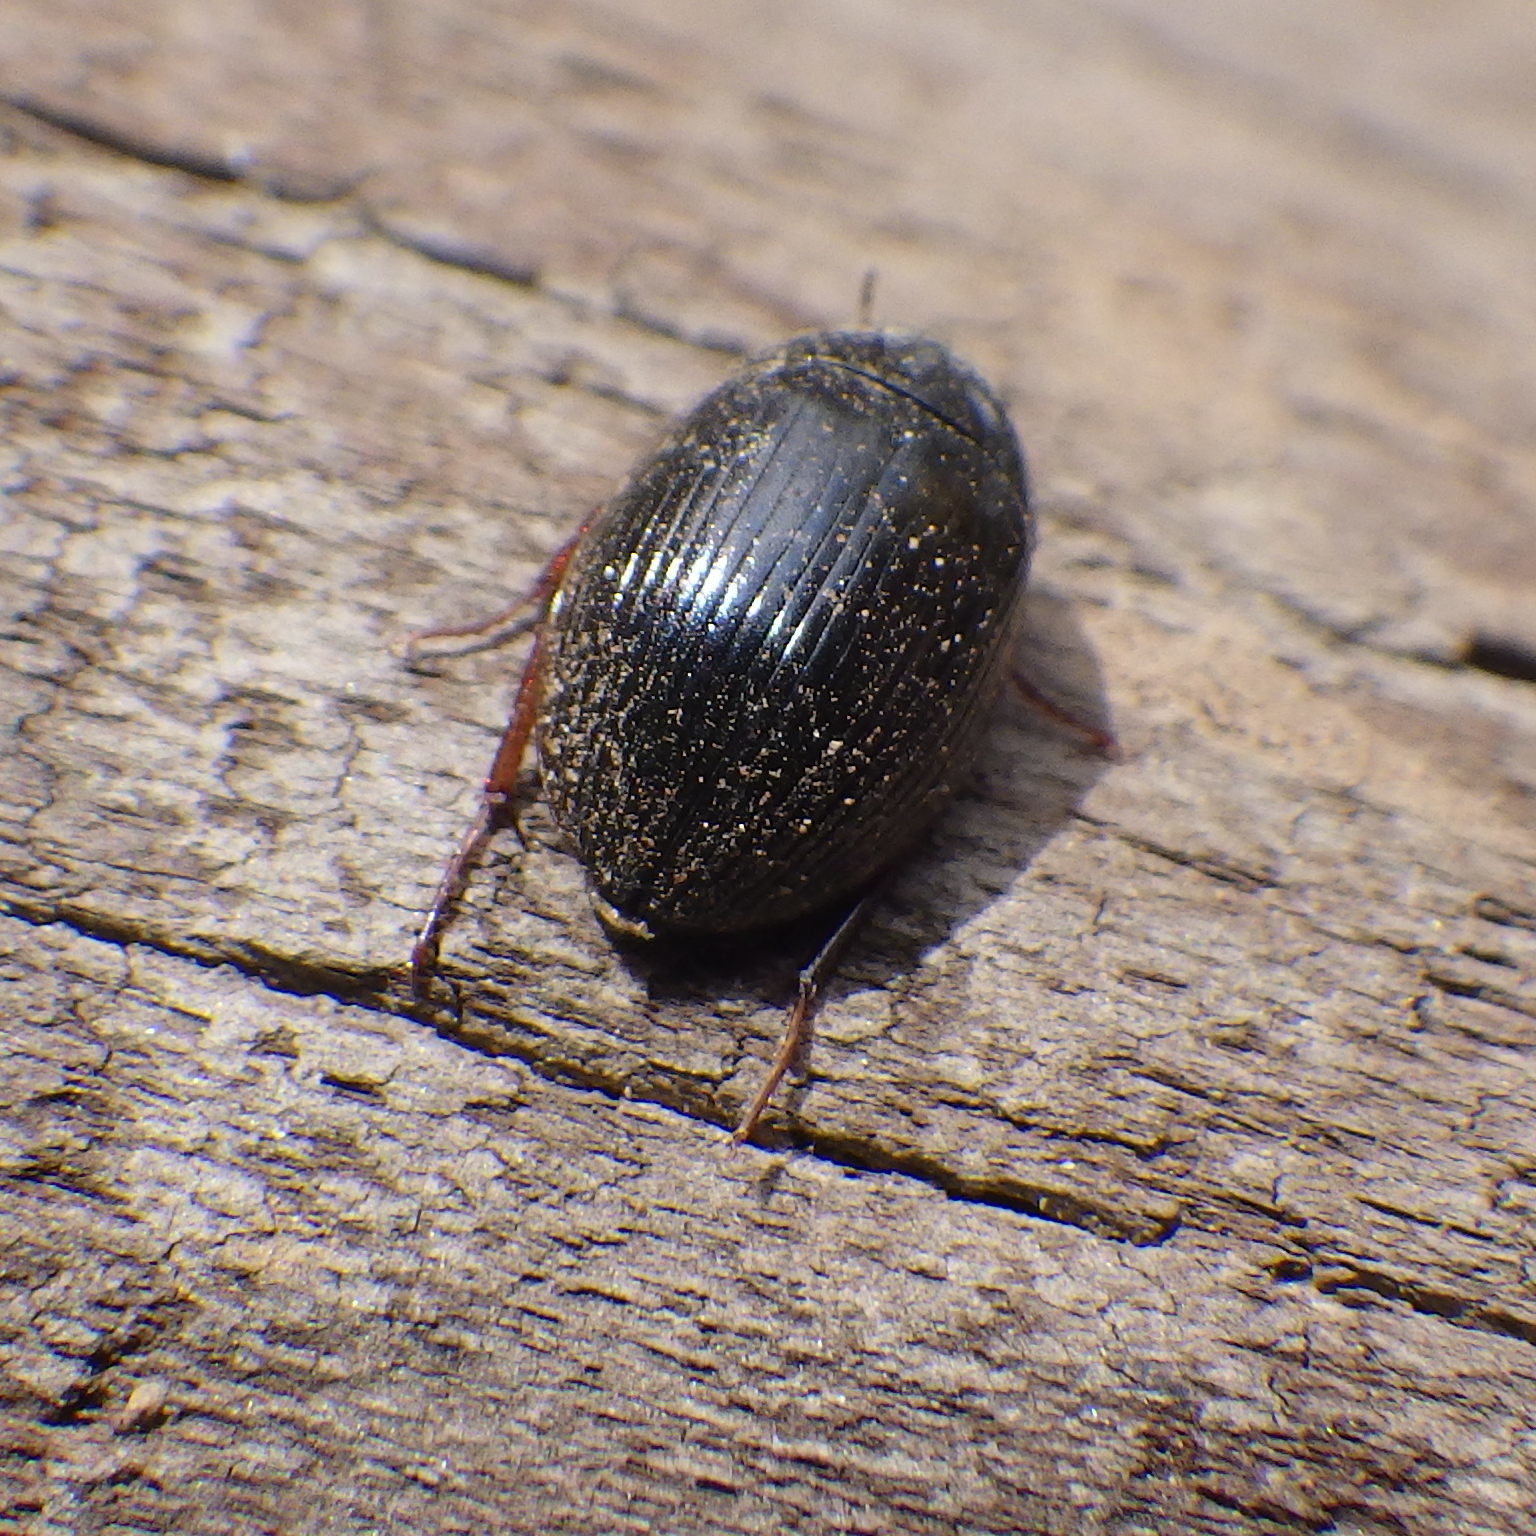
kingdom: Animalia
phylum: Arthropoda
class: Insecta
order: Coleoptera
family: Hydrophilidae
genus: Hydrobius
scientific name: Hydrobius fuscipes
